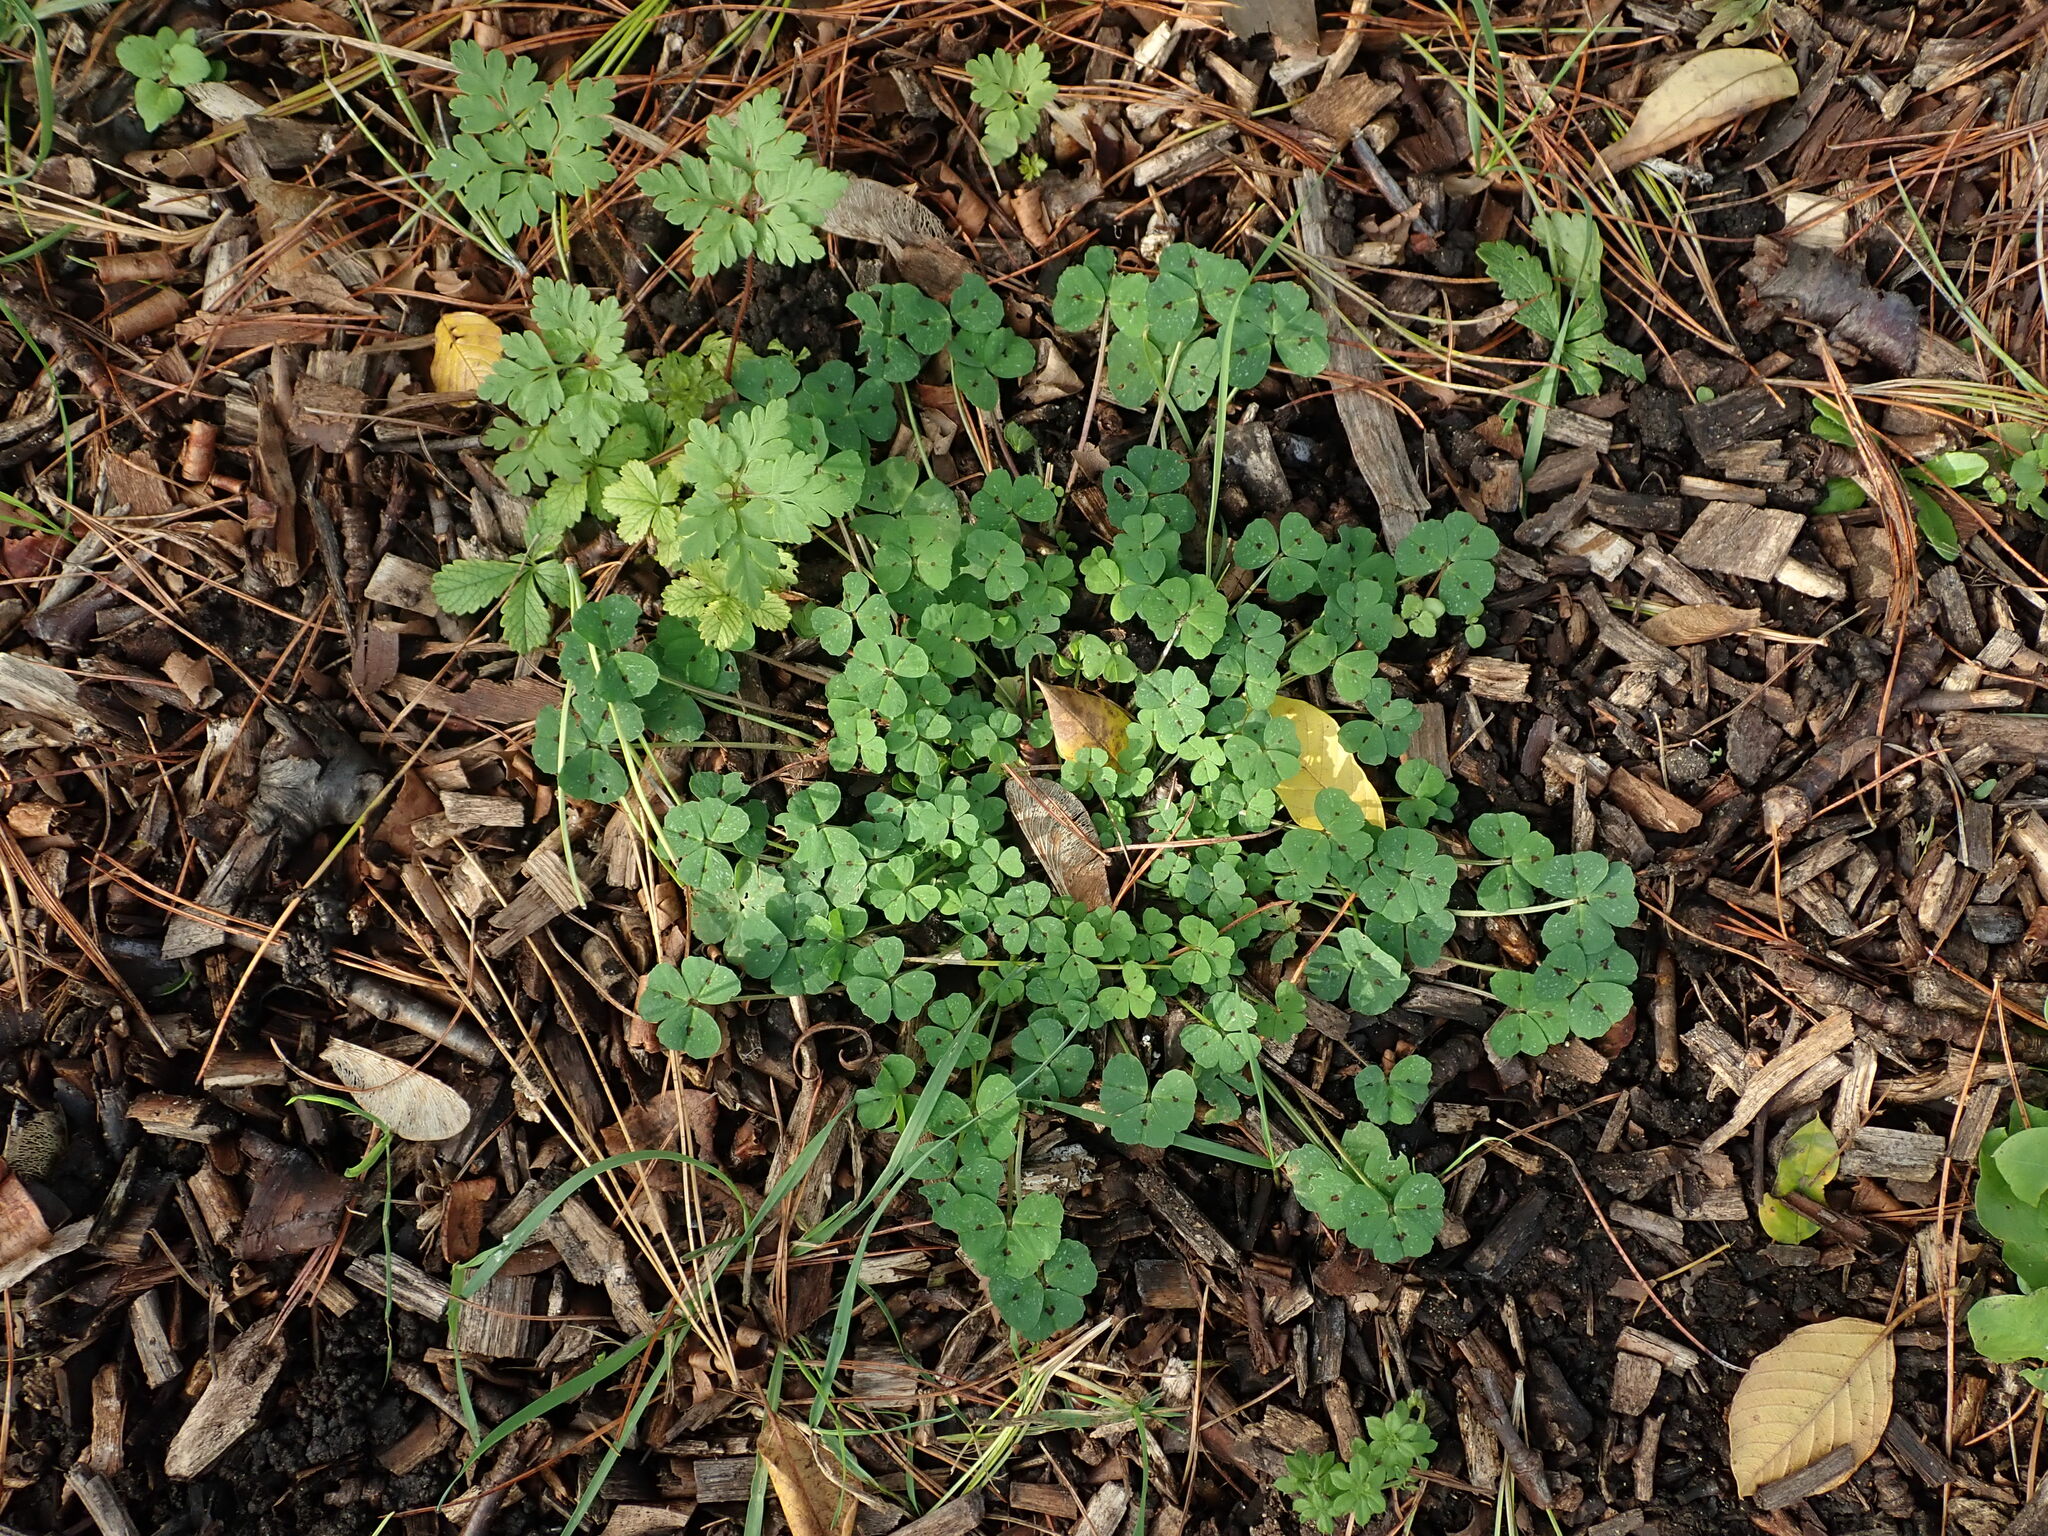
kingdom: Plantae
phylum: Tracheophyta
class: Magnoliopsida
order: Fabales
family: Fabaceae
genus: Medicago
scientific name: Medicago arabica
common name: Spotted medick
